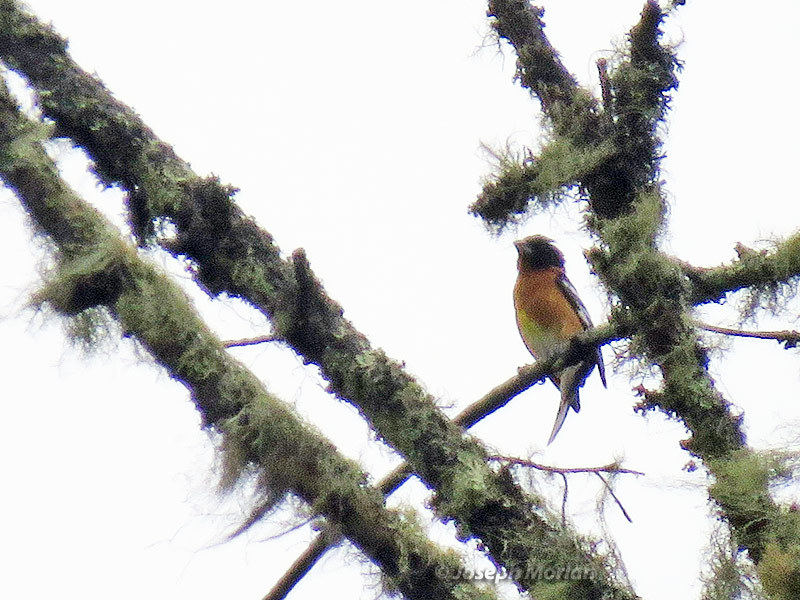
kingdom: Animalia
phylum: Chordata
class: Aves
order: Passeriformes
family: Cardinalidae
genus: Pheucticus
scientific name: Pheucticus melanocephalus
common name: Black-headed grosbeak
